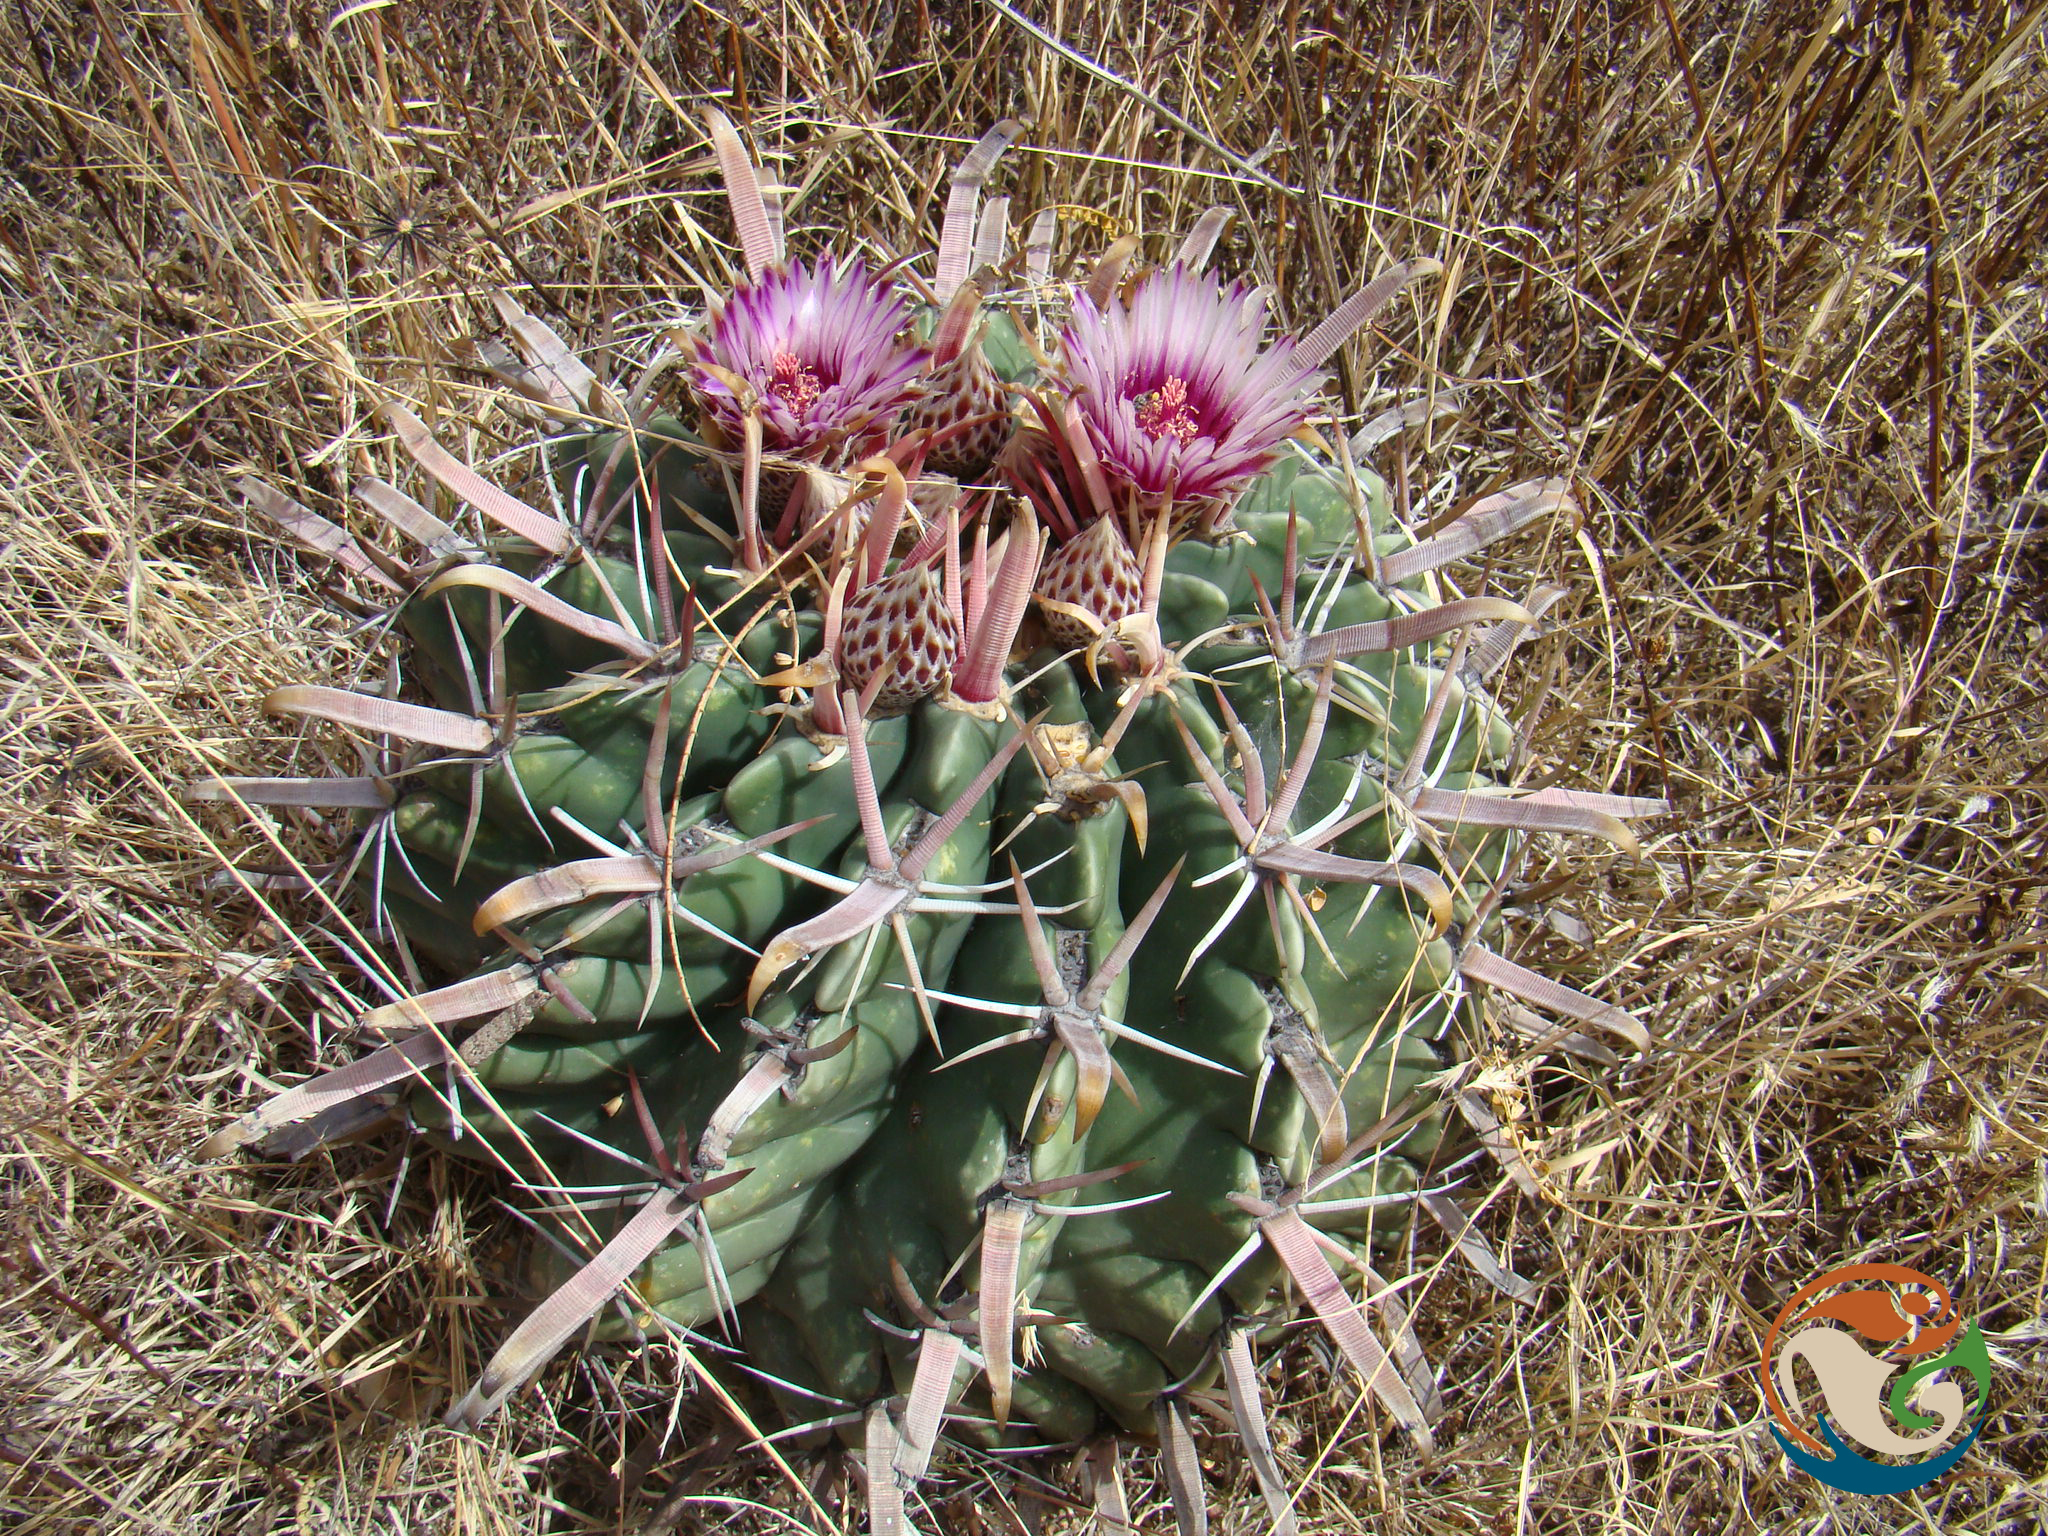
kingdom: Plantae
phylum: Tracheophyta
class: Magnoliopsida
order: Caryophyllales
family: Cactaceae
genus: Ferocactus
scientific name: Ferocactus latispinus
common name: Devil's-tongue cactus
